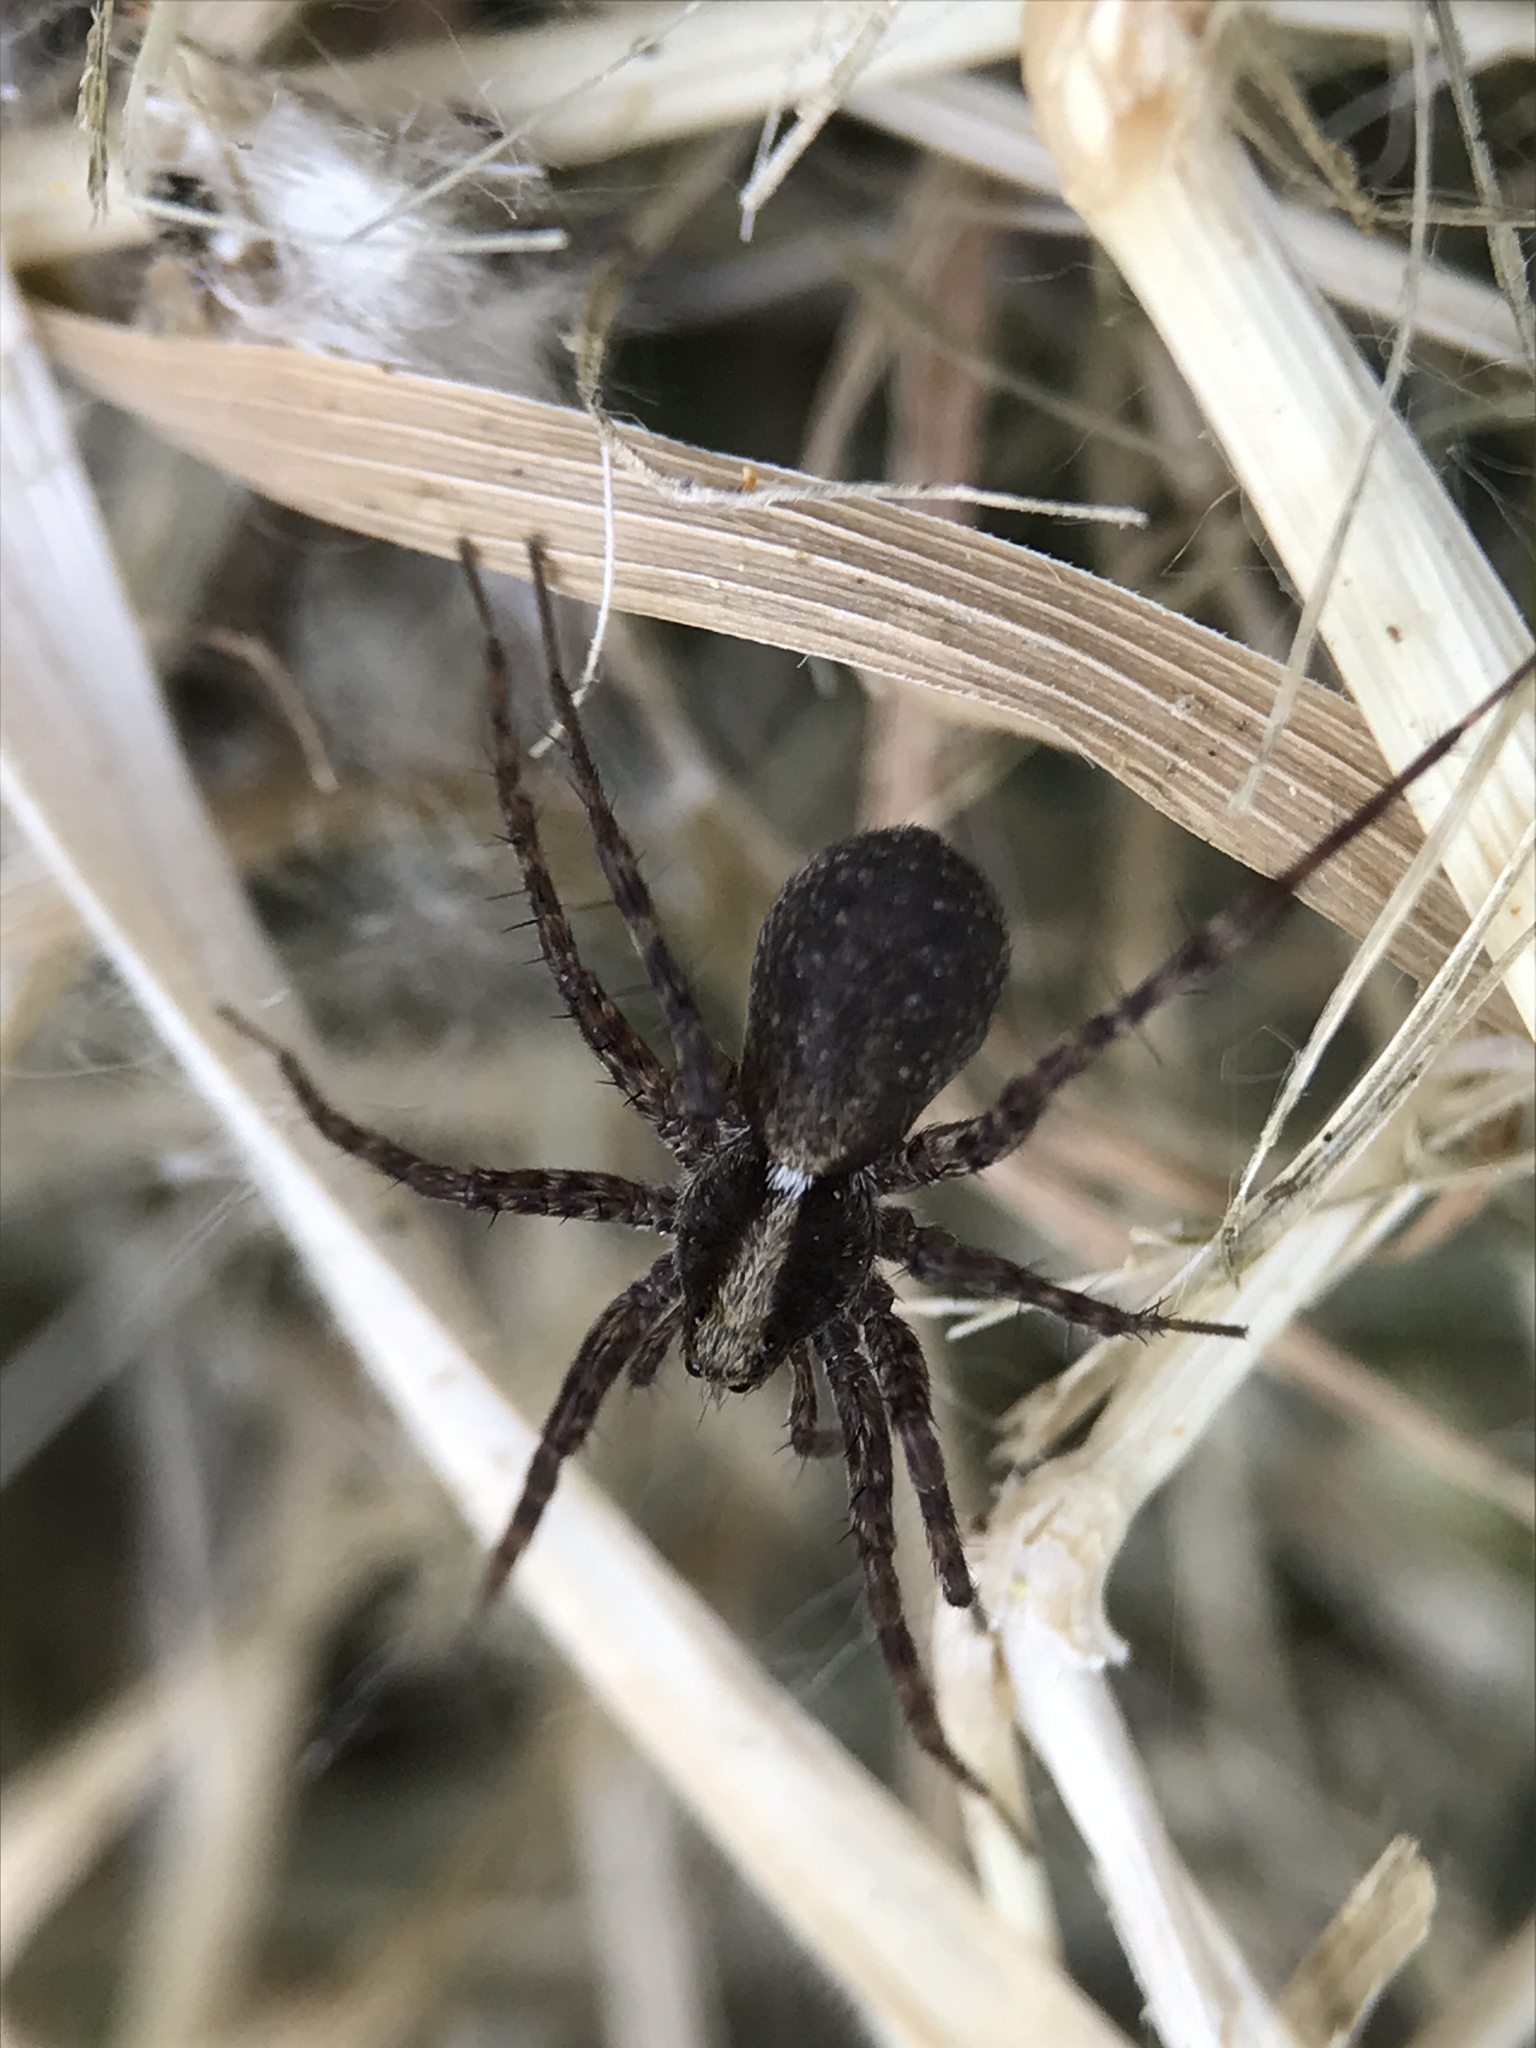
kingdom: Animalia
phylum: Arthropoda
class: Arachnida
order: Araneae
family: Lycosidae
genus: Pardosa
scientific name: Pardosa
